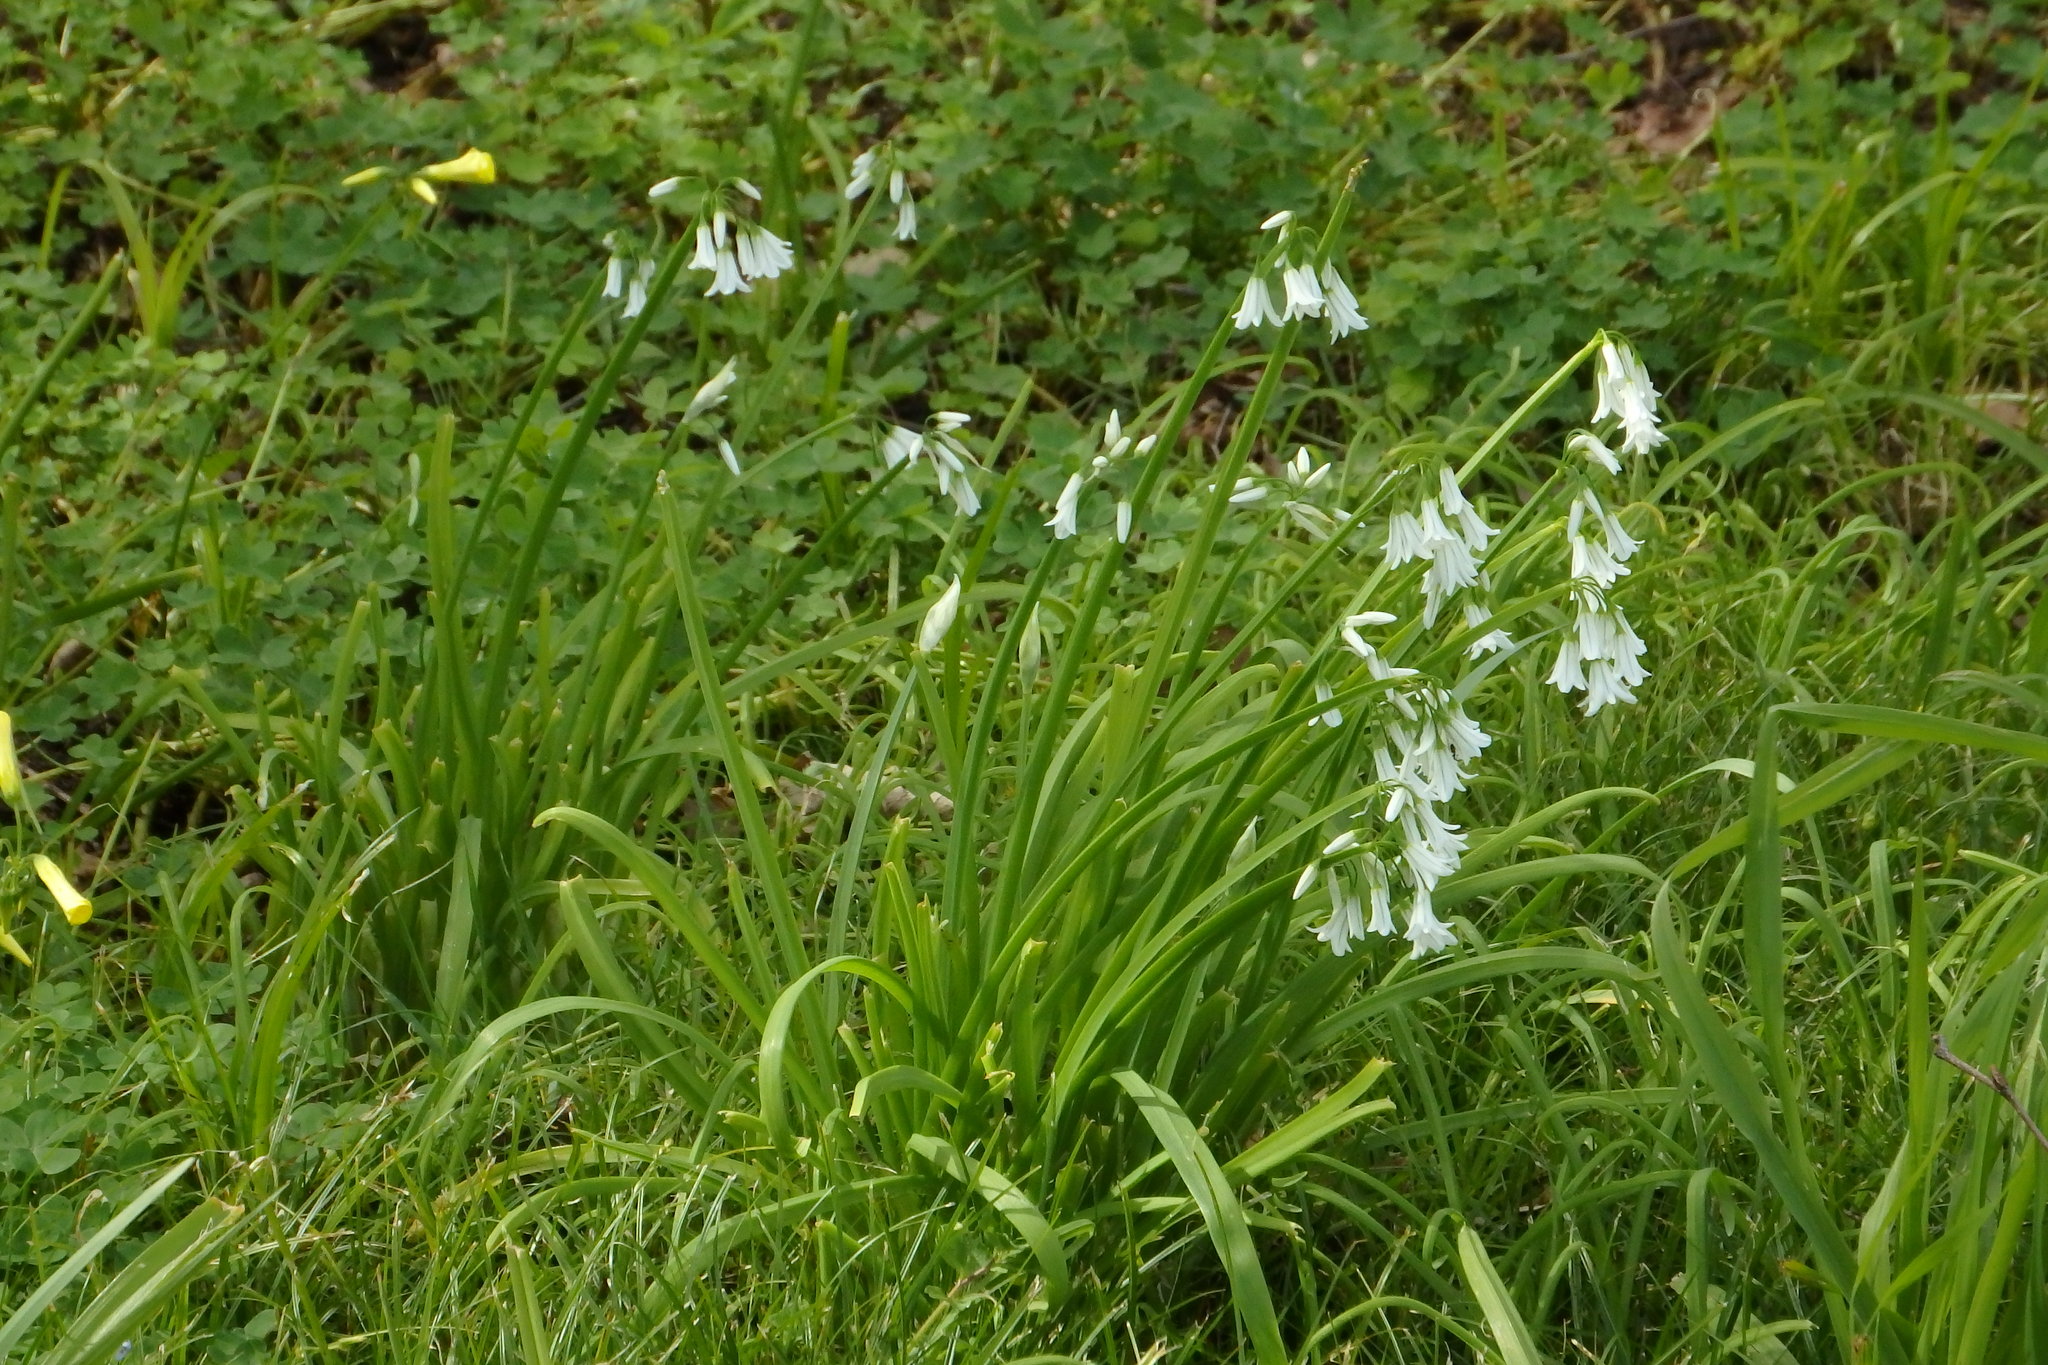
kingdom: Plantae
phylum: Tracheophyta
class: Liliopsida
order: Asparagales
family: Amaryllidaceae
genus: Allium
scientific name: Allium triquetrum
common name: Three-cornered garlic
